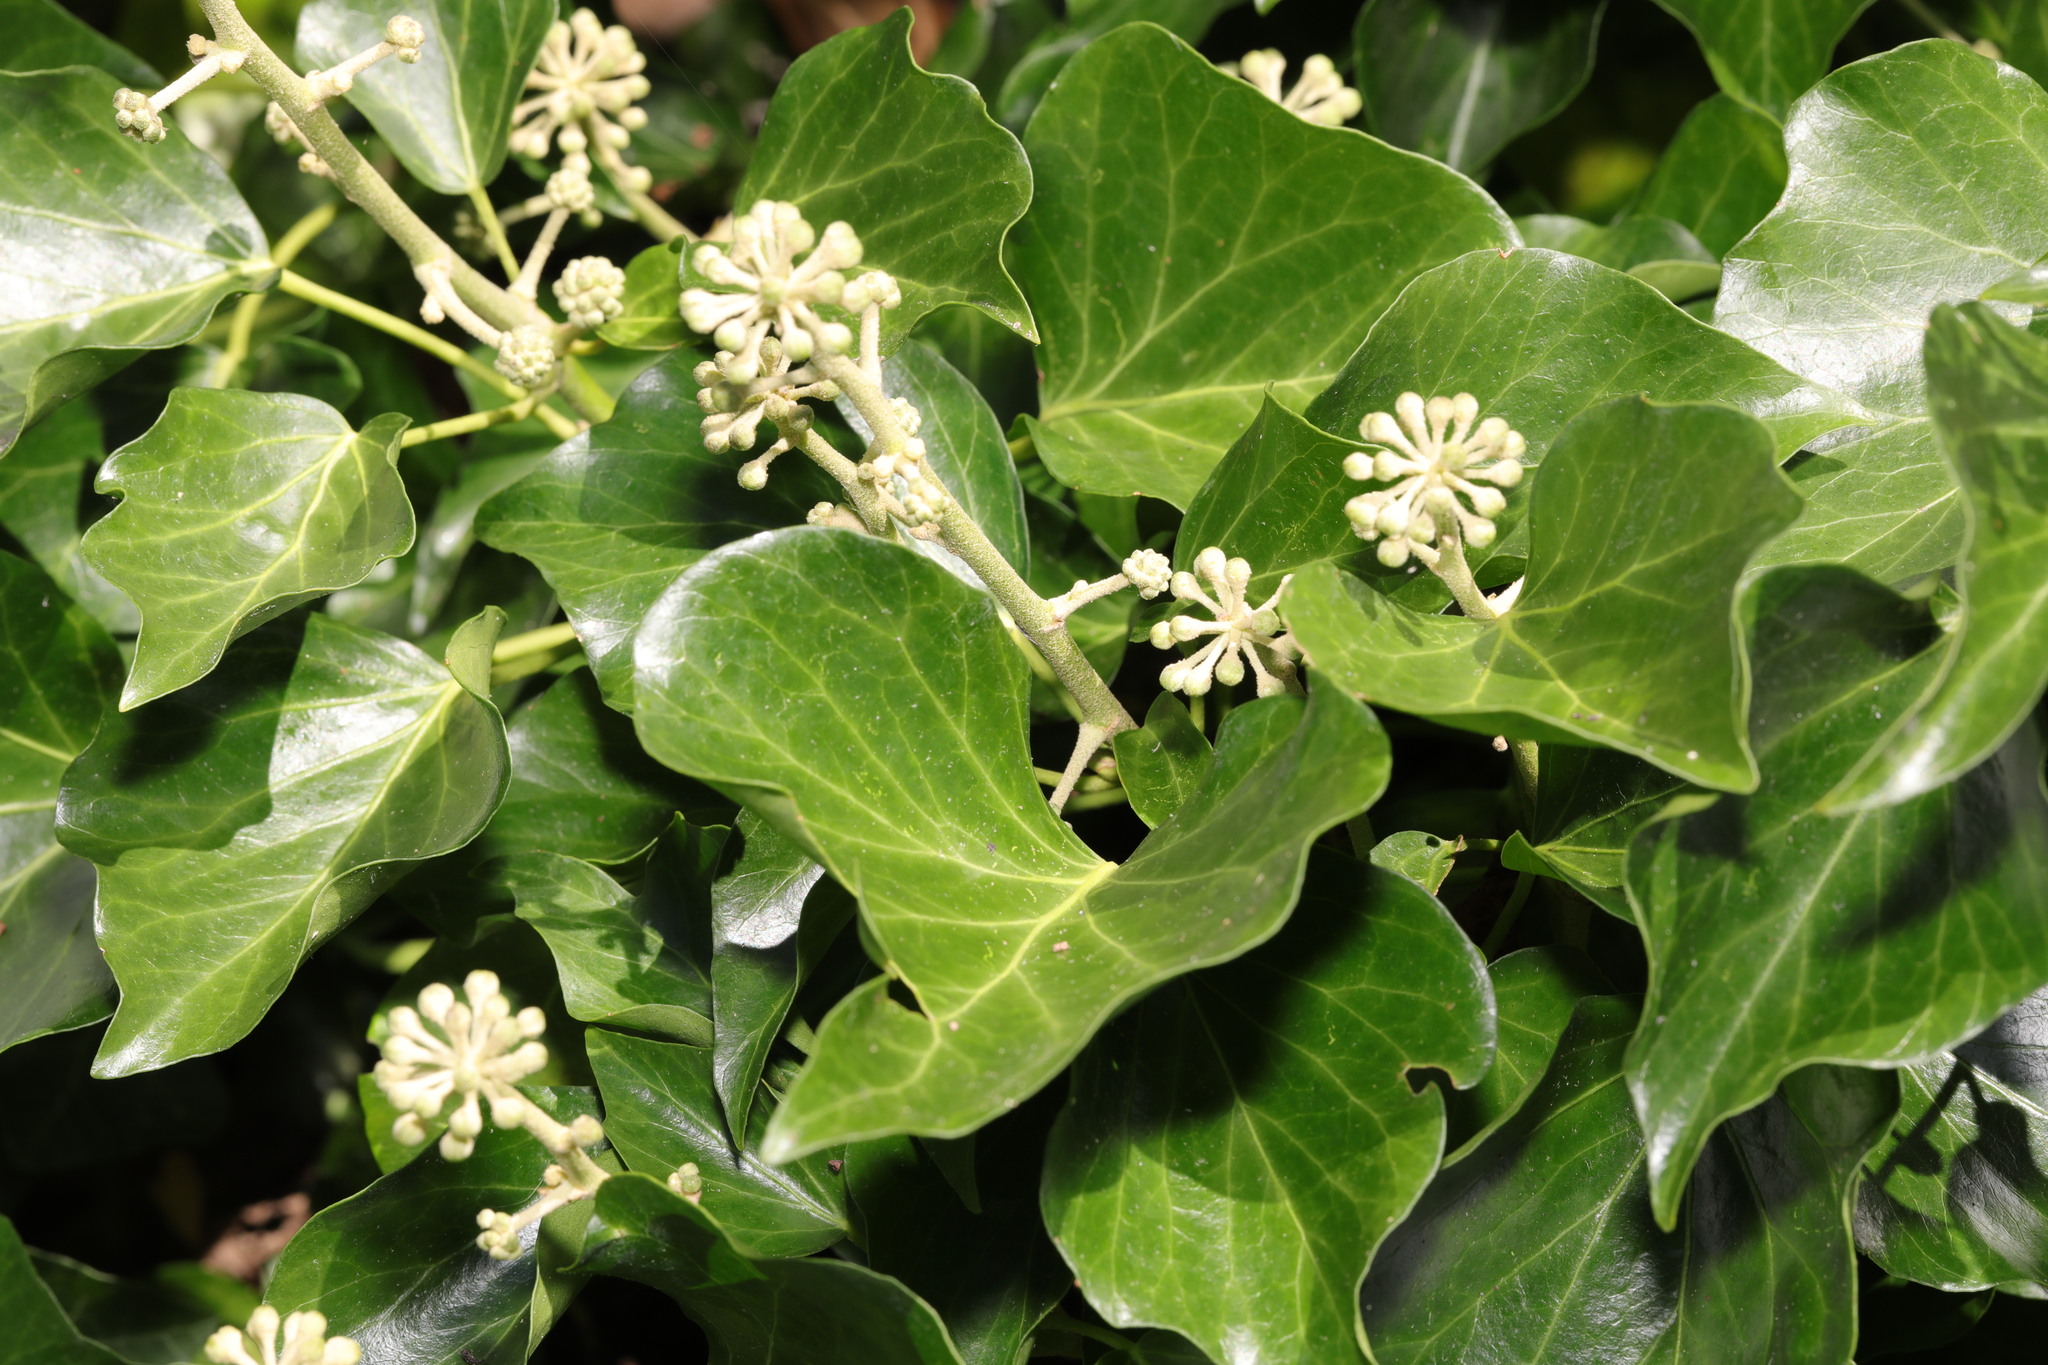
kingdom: Plantae
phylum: Tracheophyta
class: Magnoliopsida
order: Apiales
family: Araliaceae
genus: Hedera
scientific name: Hedera helix
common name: Ivy
